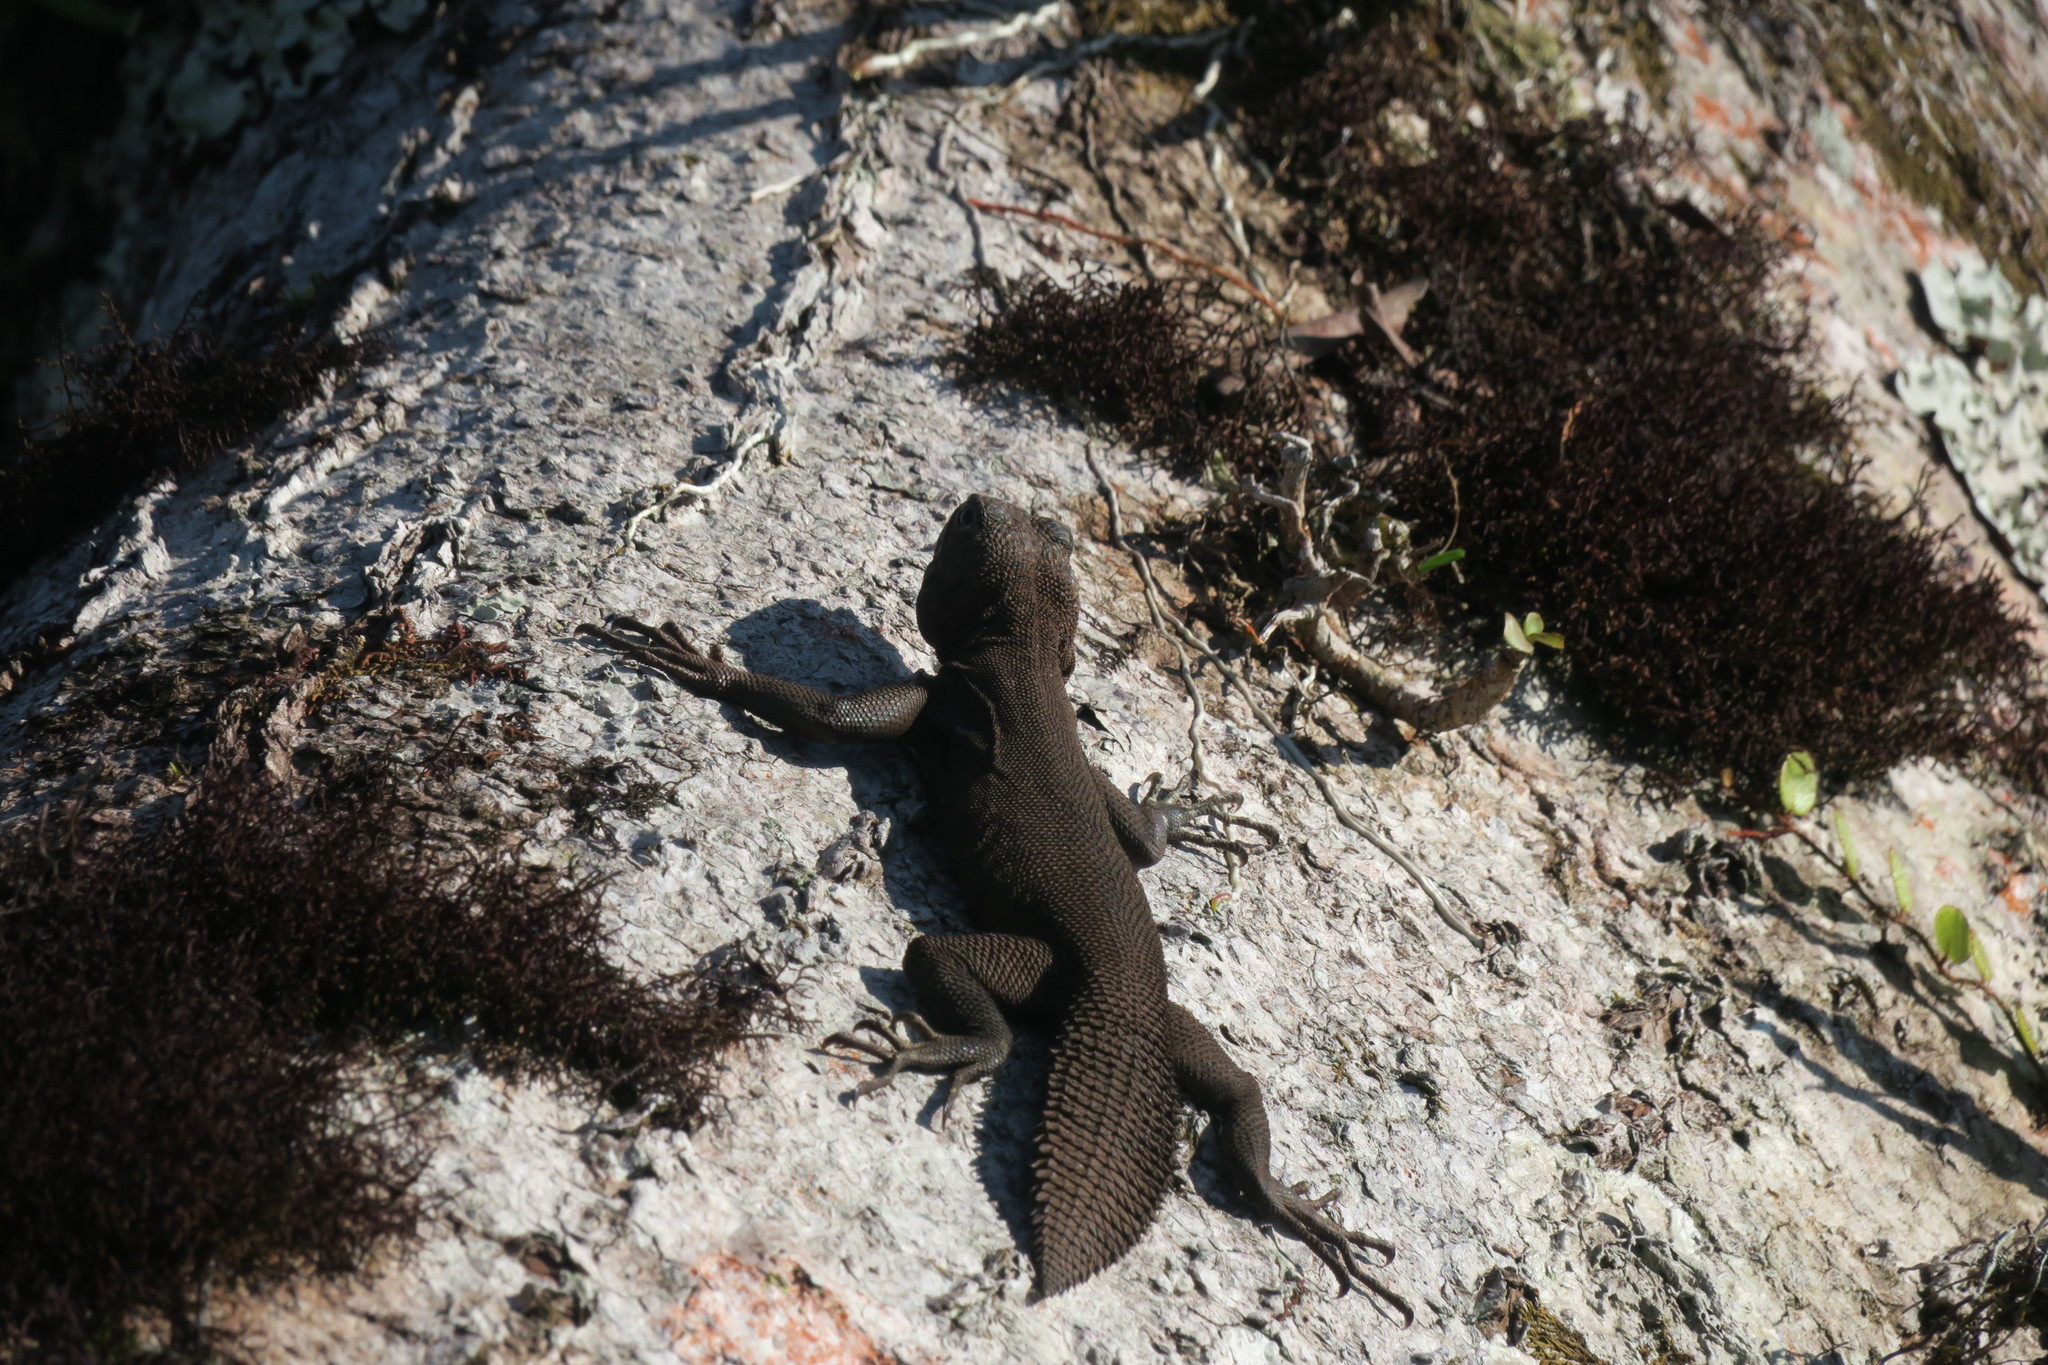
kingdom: Animalia
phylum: Chordata
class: Squamata
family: Tropiduridae
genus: Uracentron
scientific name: Uracentron flaviceps
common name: Tropical thornytail iguana
